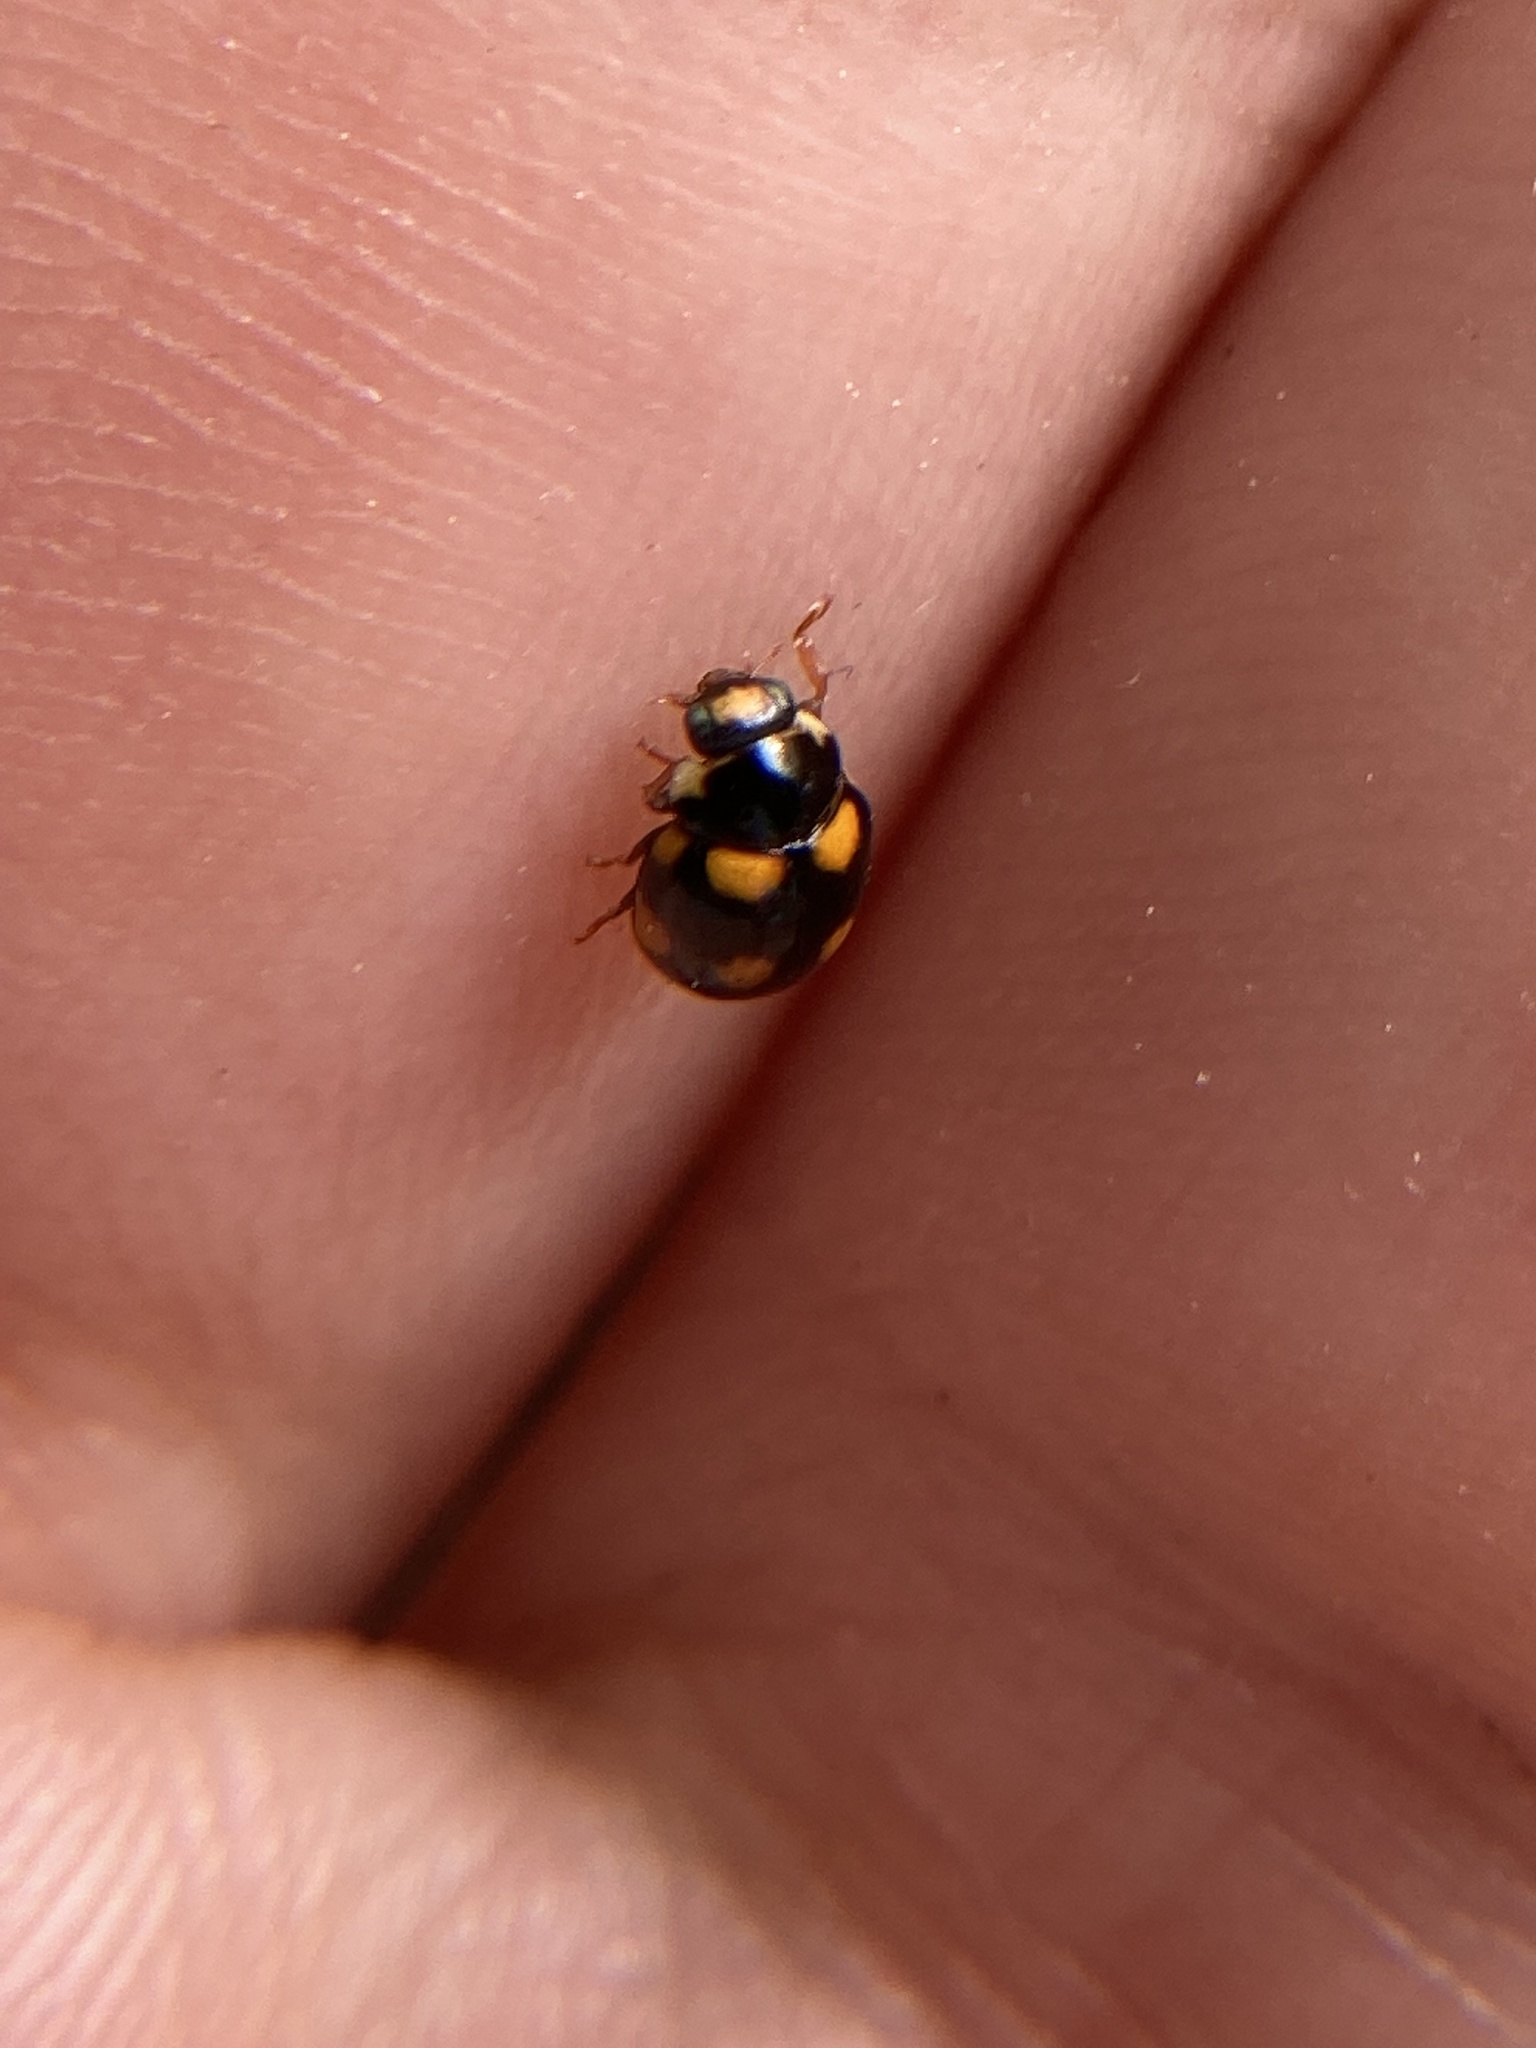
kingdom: Animalia
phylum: Arthropoda
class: Insecta
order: Coleoptera
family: Coccinellidae
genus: Brachiacantha
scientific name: Brachiacantha ursina
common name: Ursine spurleg lady beetle
